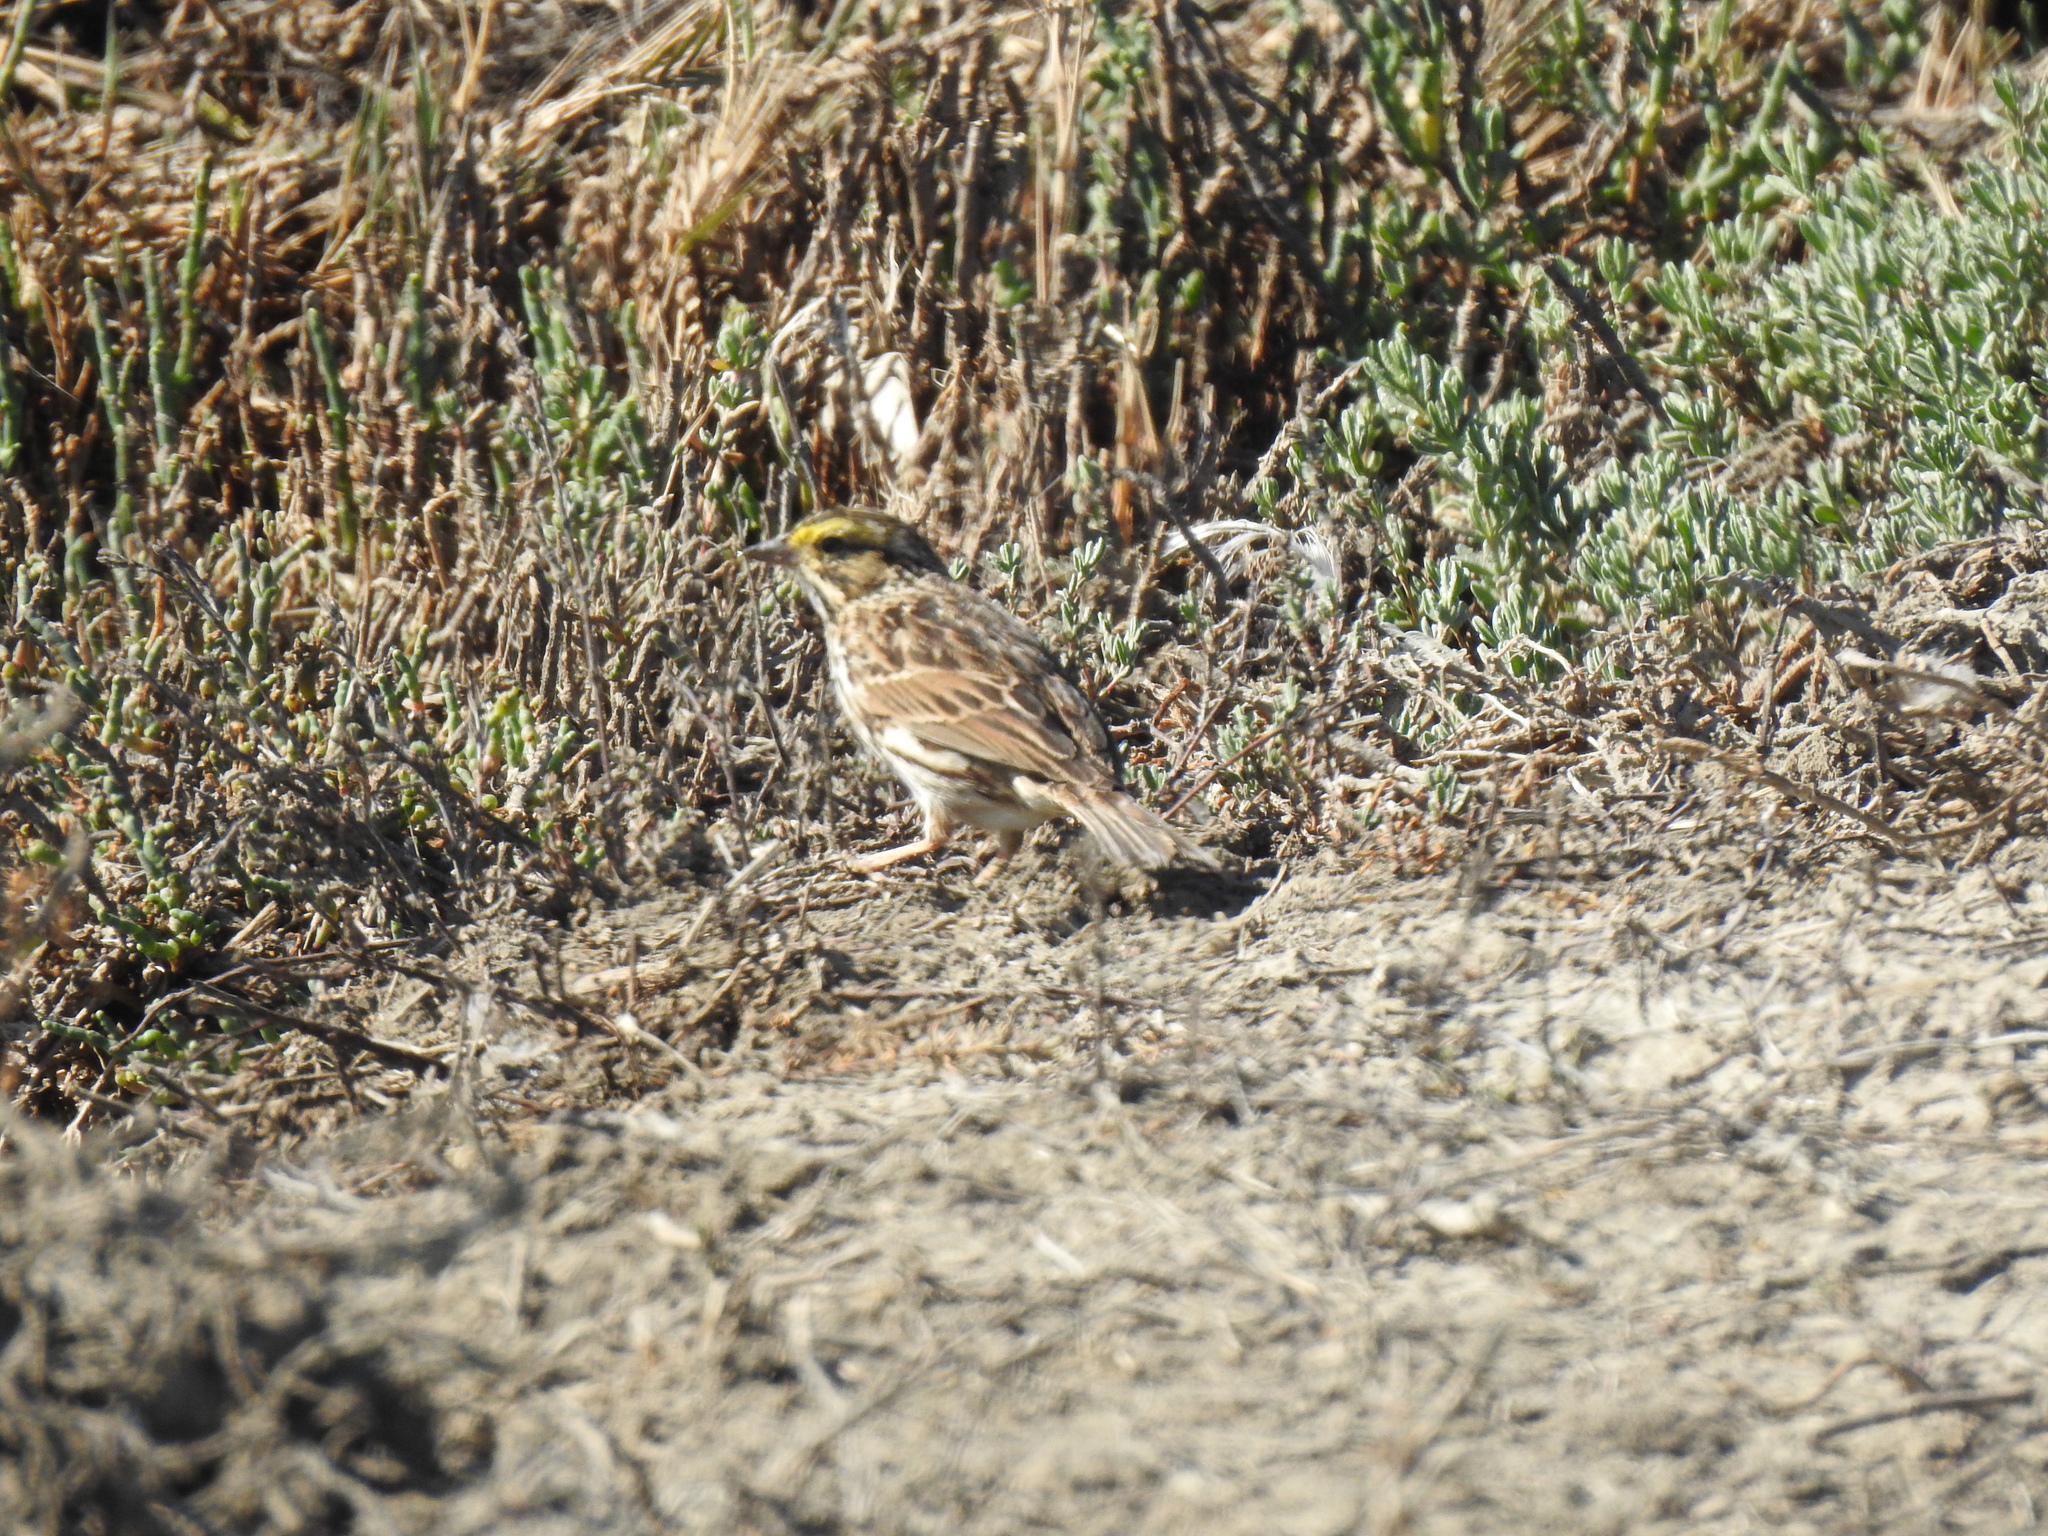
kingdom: Animalia
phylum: Chordata
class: Aves
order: Passeriformes
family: Passerellidae
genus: Passerculus
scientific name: Passerculus sandwichensis
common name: Savannah sparrow
